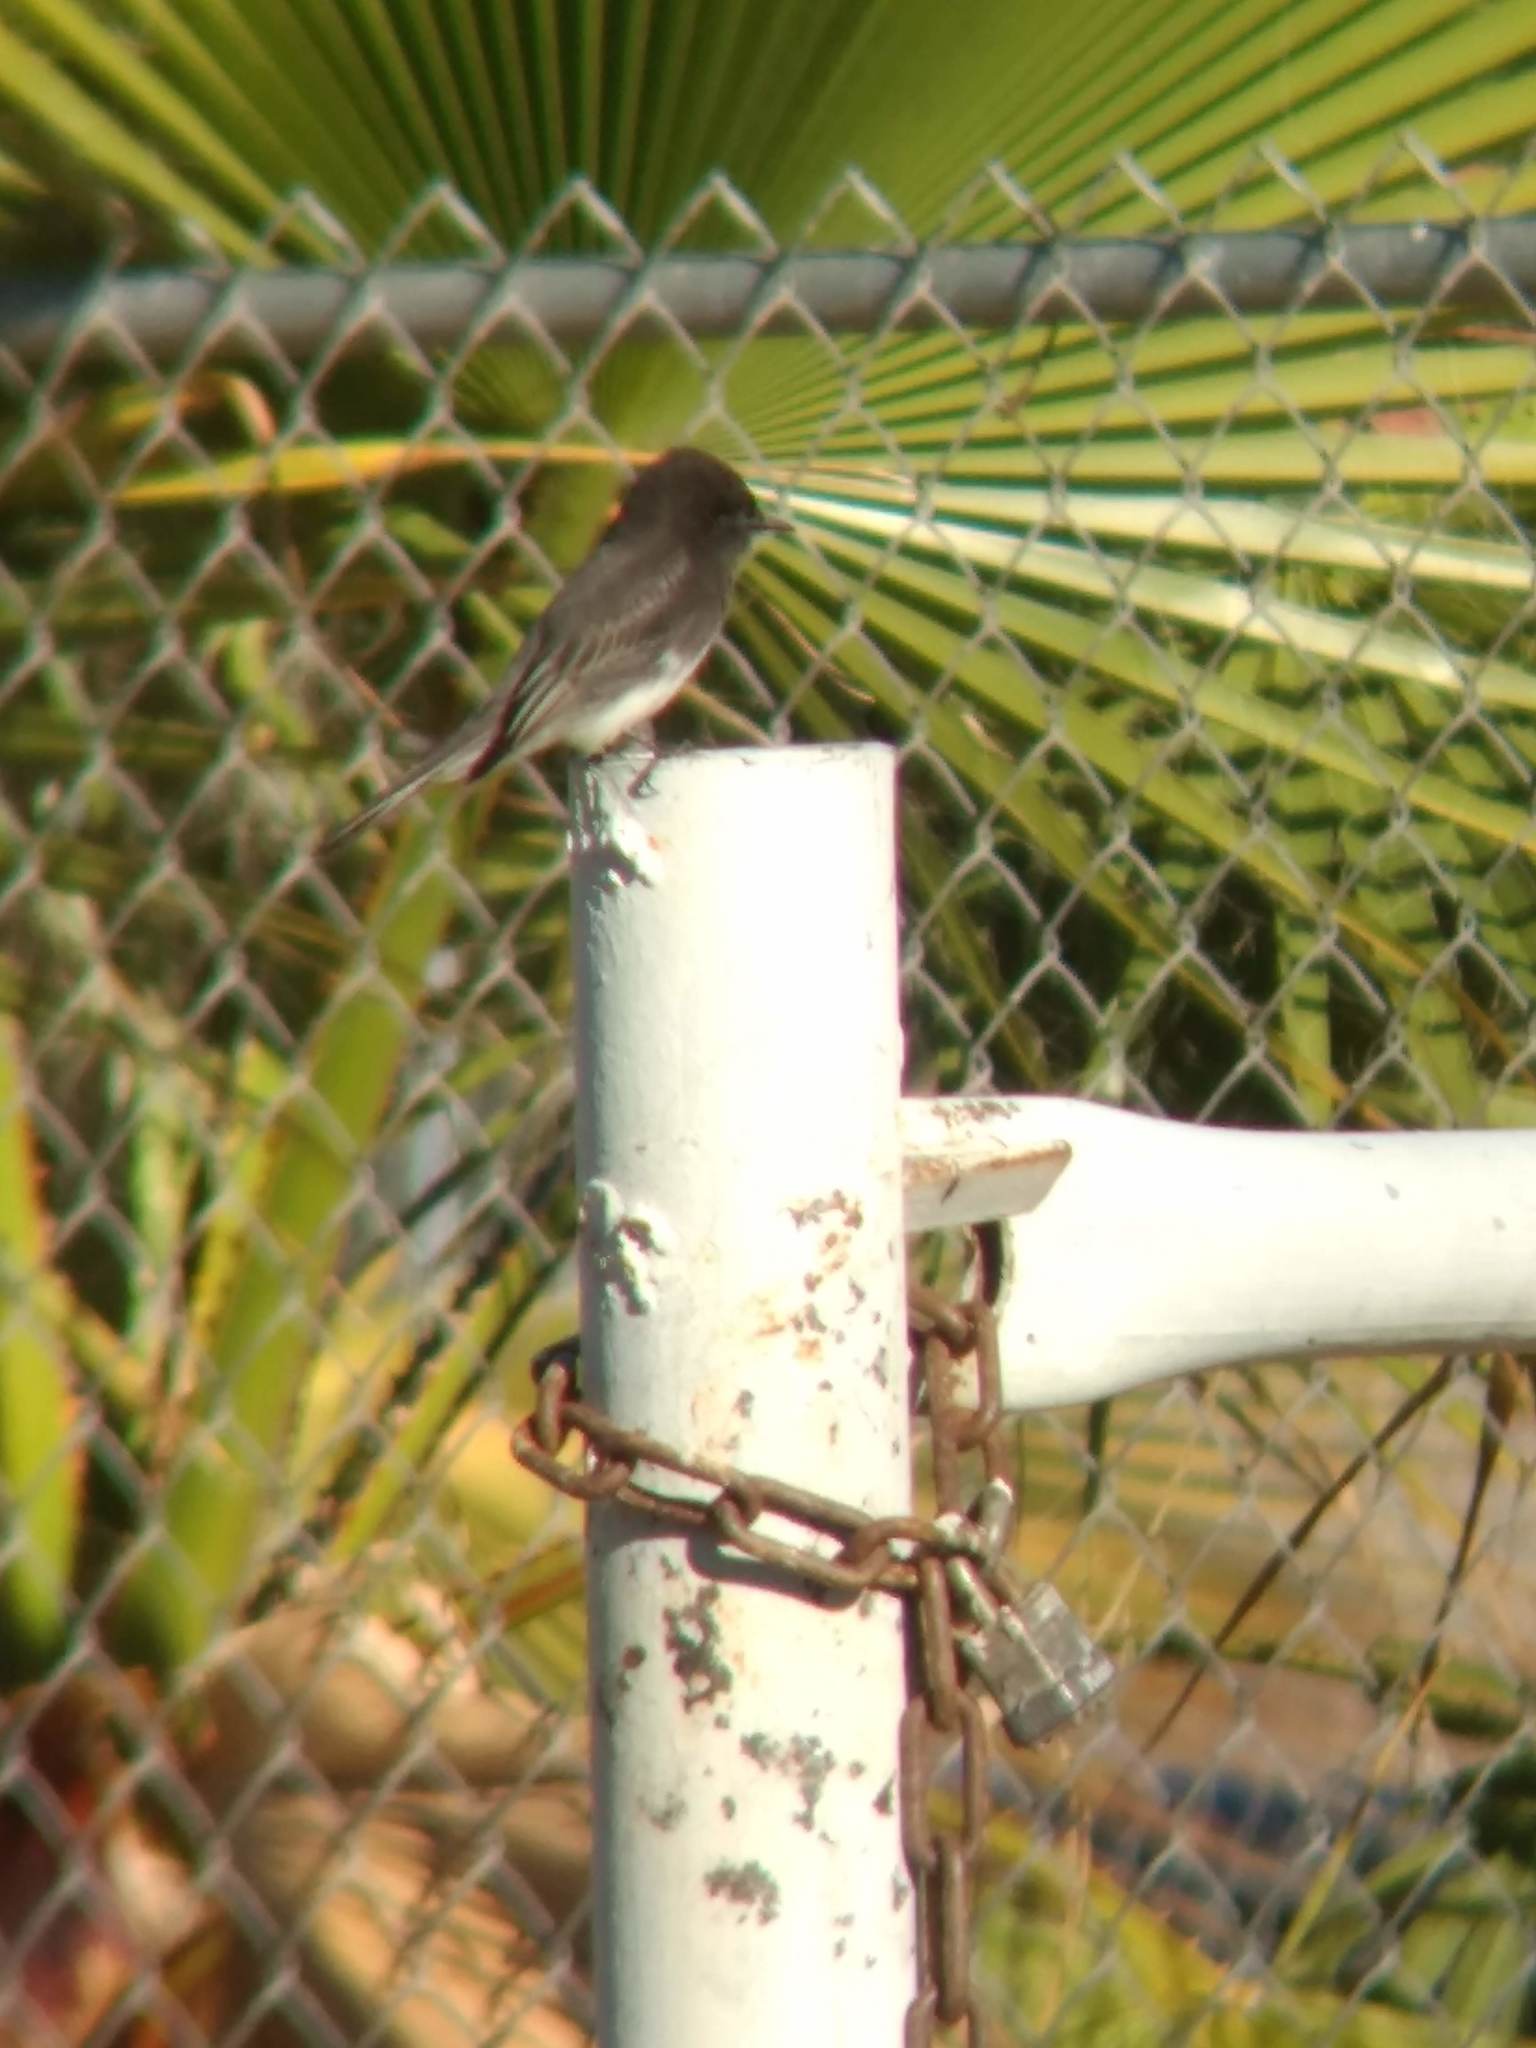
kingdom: Animalia
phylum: Chordata
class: Aves
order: Passeriformes
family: Tyrannidae
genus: Sayornis
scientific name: Sayornis nigricans
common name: Black phoebe
